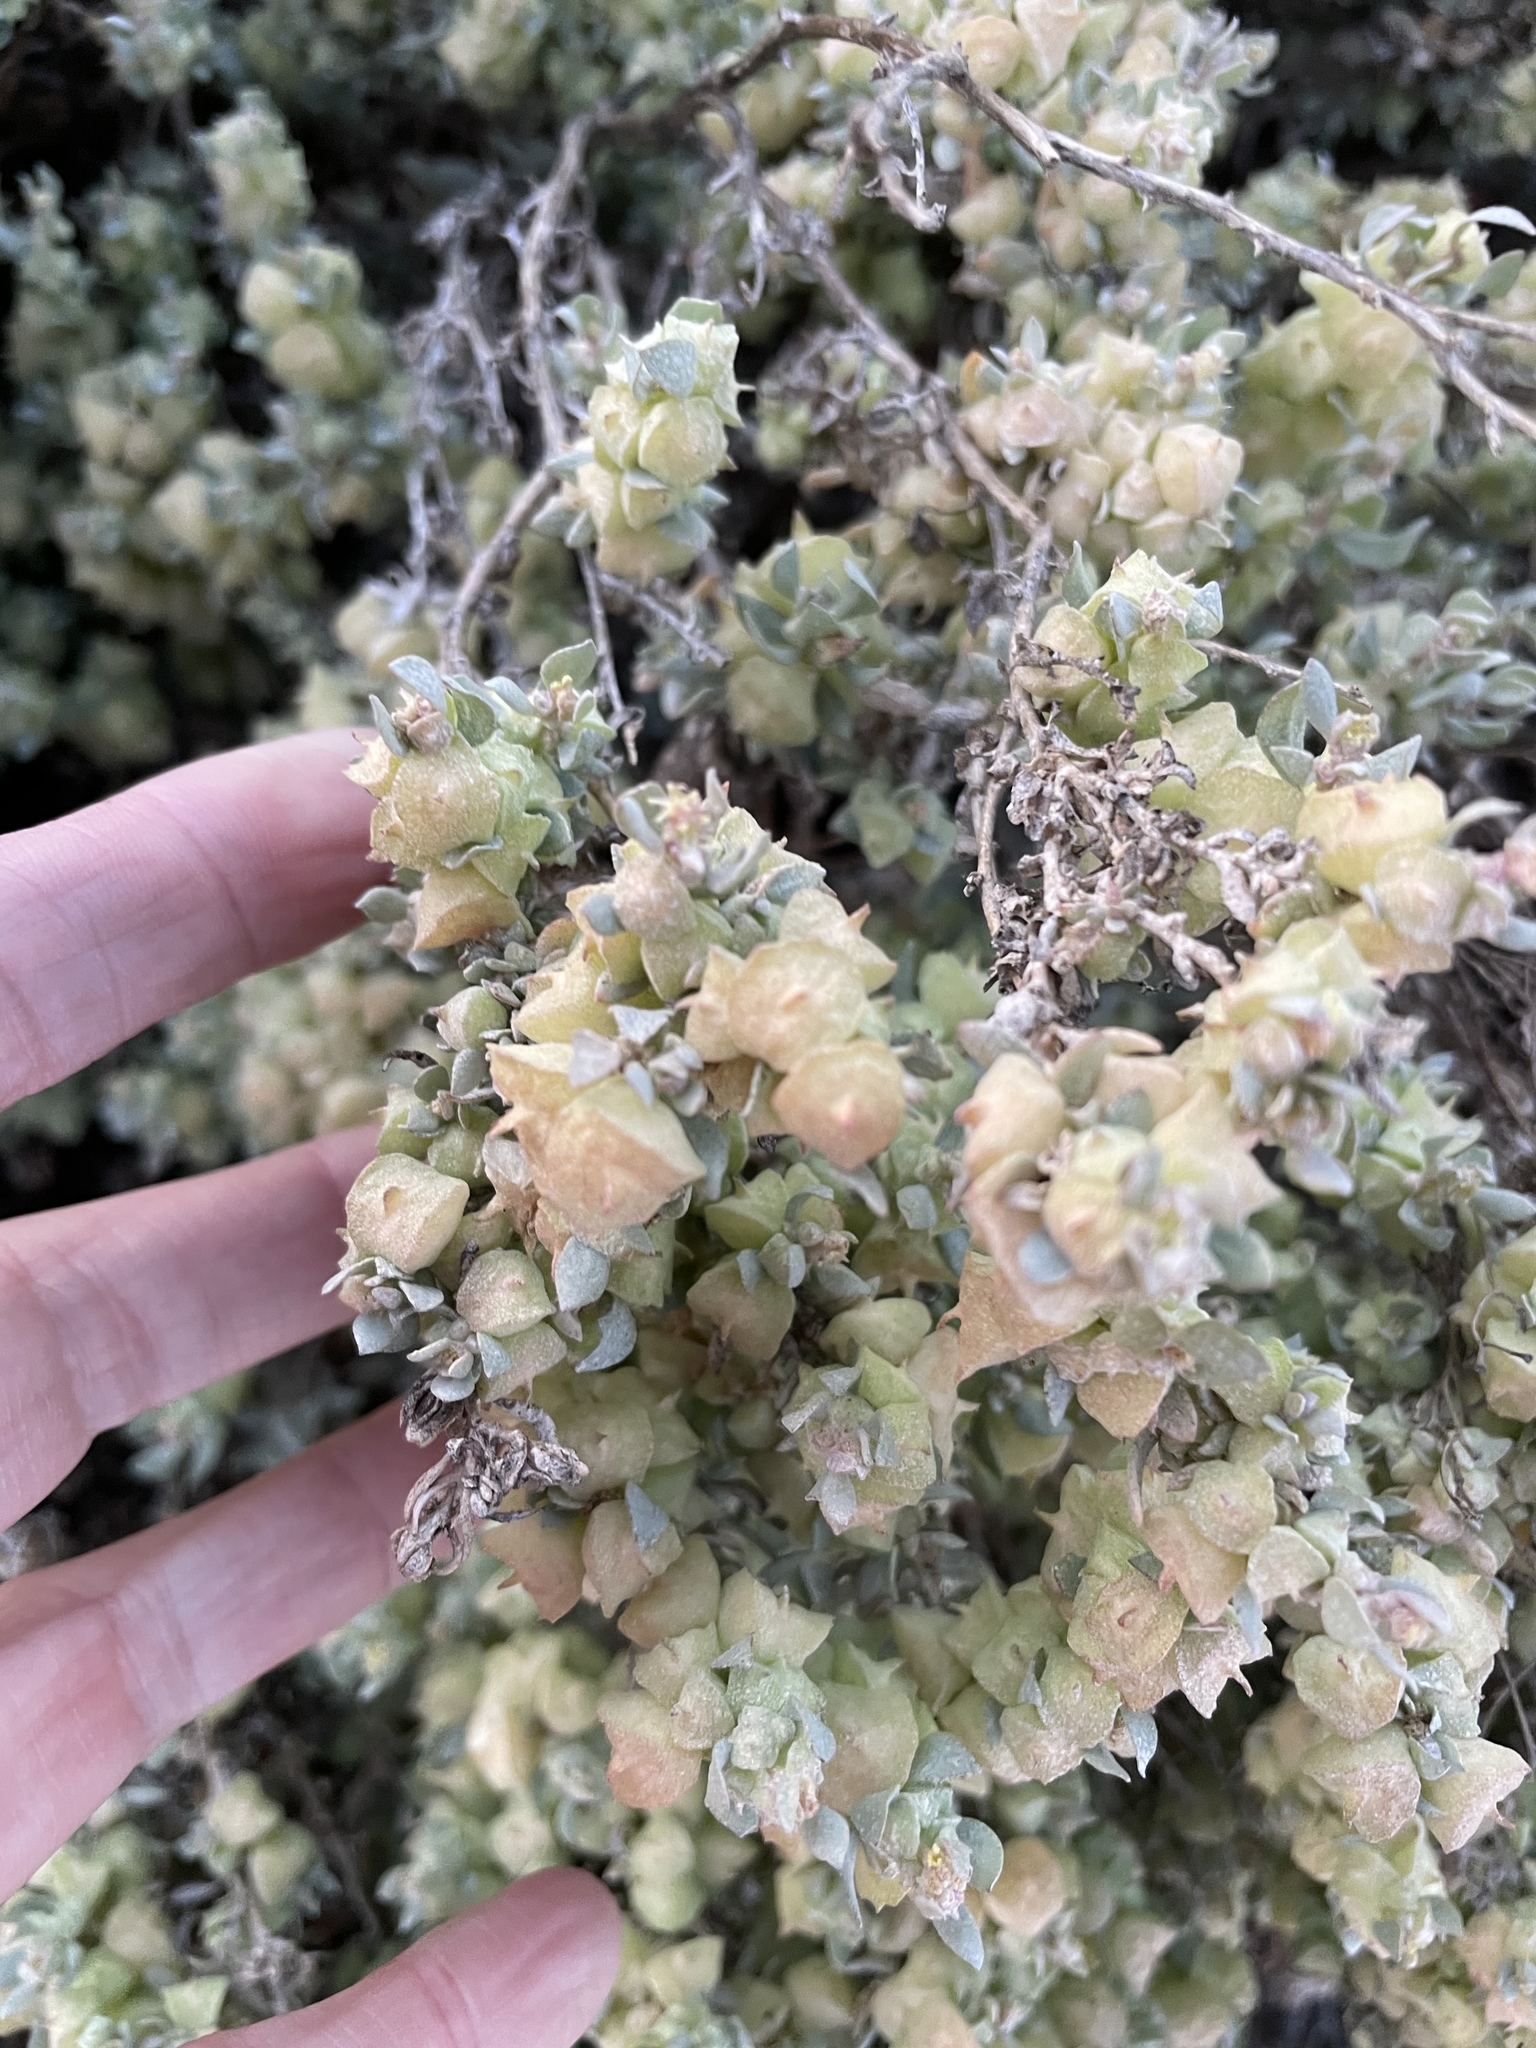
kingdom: Plantae
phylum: Tracheophyta
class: Magnoliopsida
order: Caryophyllales
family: Amaranthaceae
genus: Atriplex
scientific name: Atriplex lindleyi
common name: Lindley's saltbush
